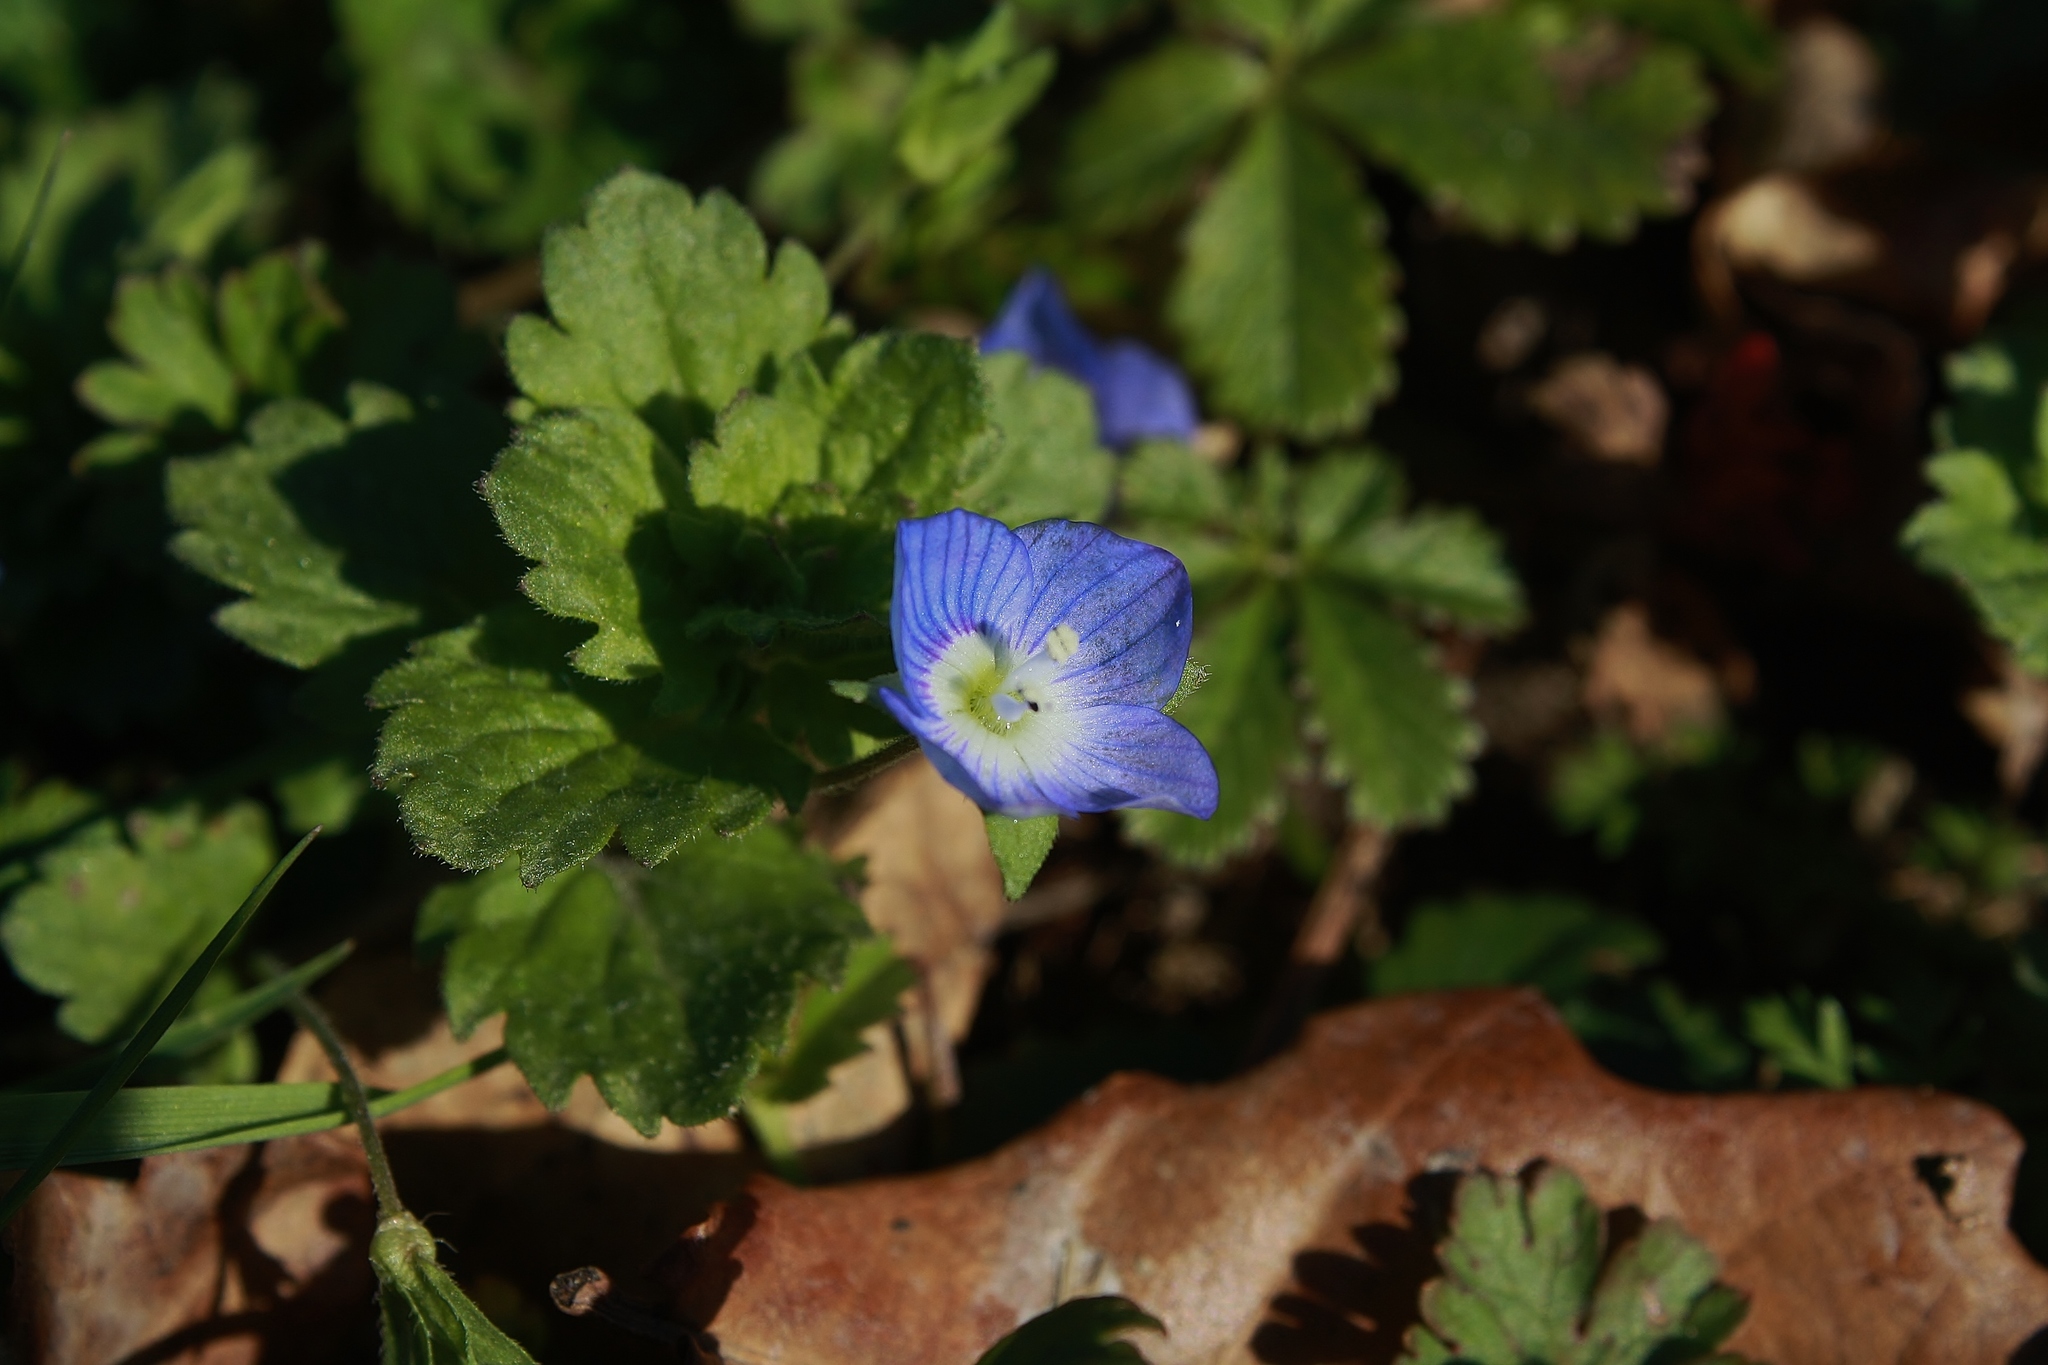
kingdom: Plantae
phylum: Tracheophyta
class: Magnoliopsida
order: Lamiales
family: Plantaginaceae
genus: Veronica
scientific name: Veronica persica
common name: Common field-speedwell
